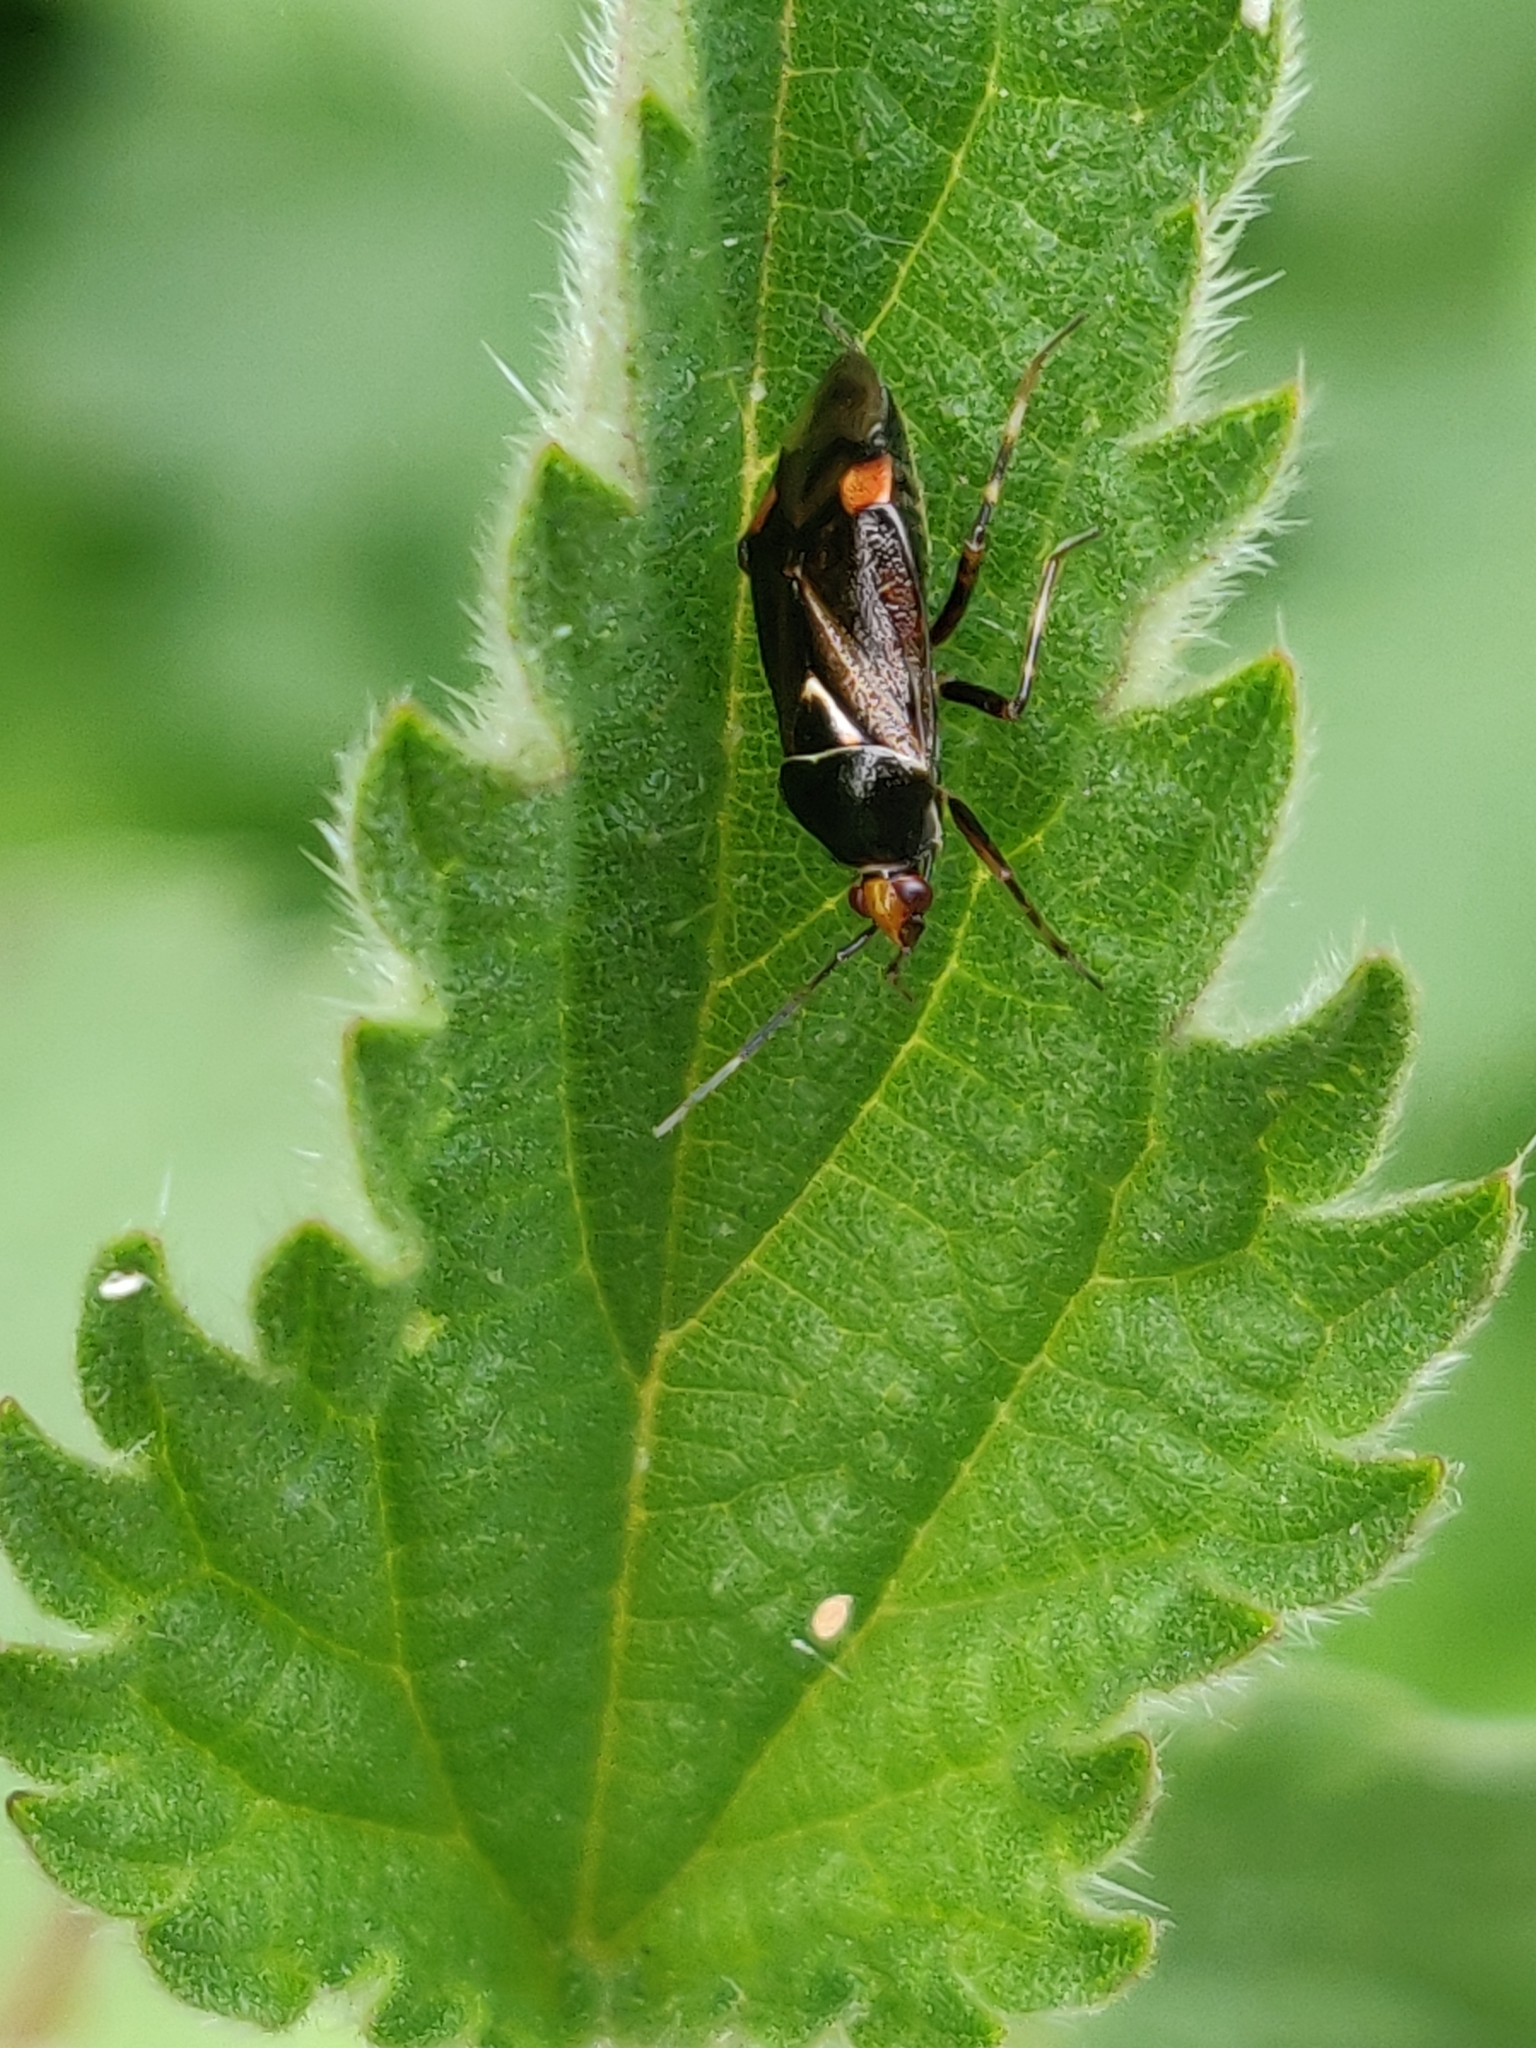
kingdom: Animalia
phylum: Arthropoda
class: Insecta
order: Hemiptera
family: Miridae
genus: Deraeocoris
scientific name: Deraeocoris flavilinea
